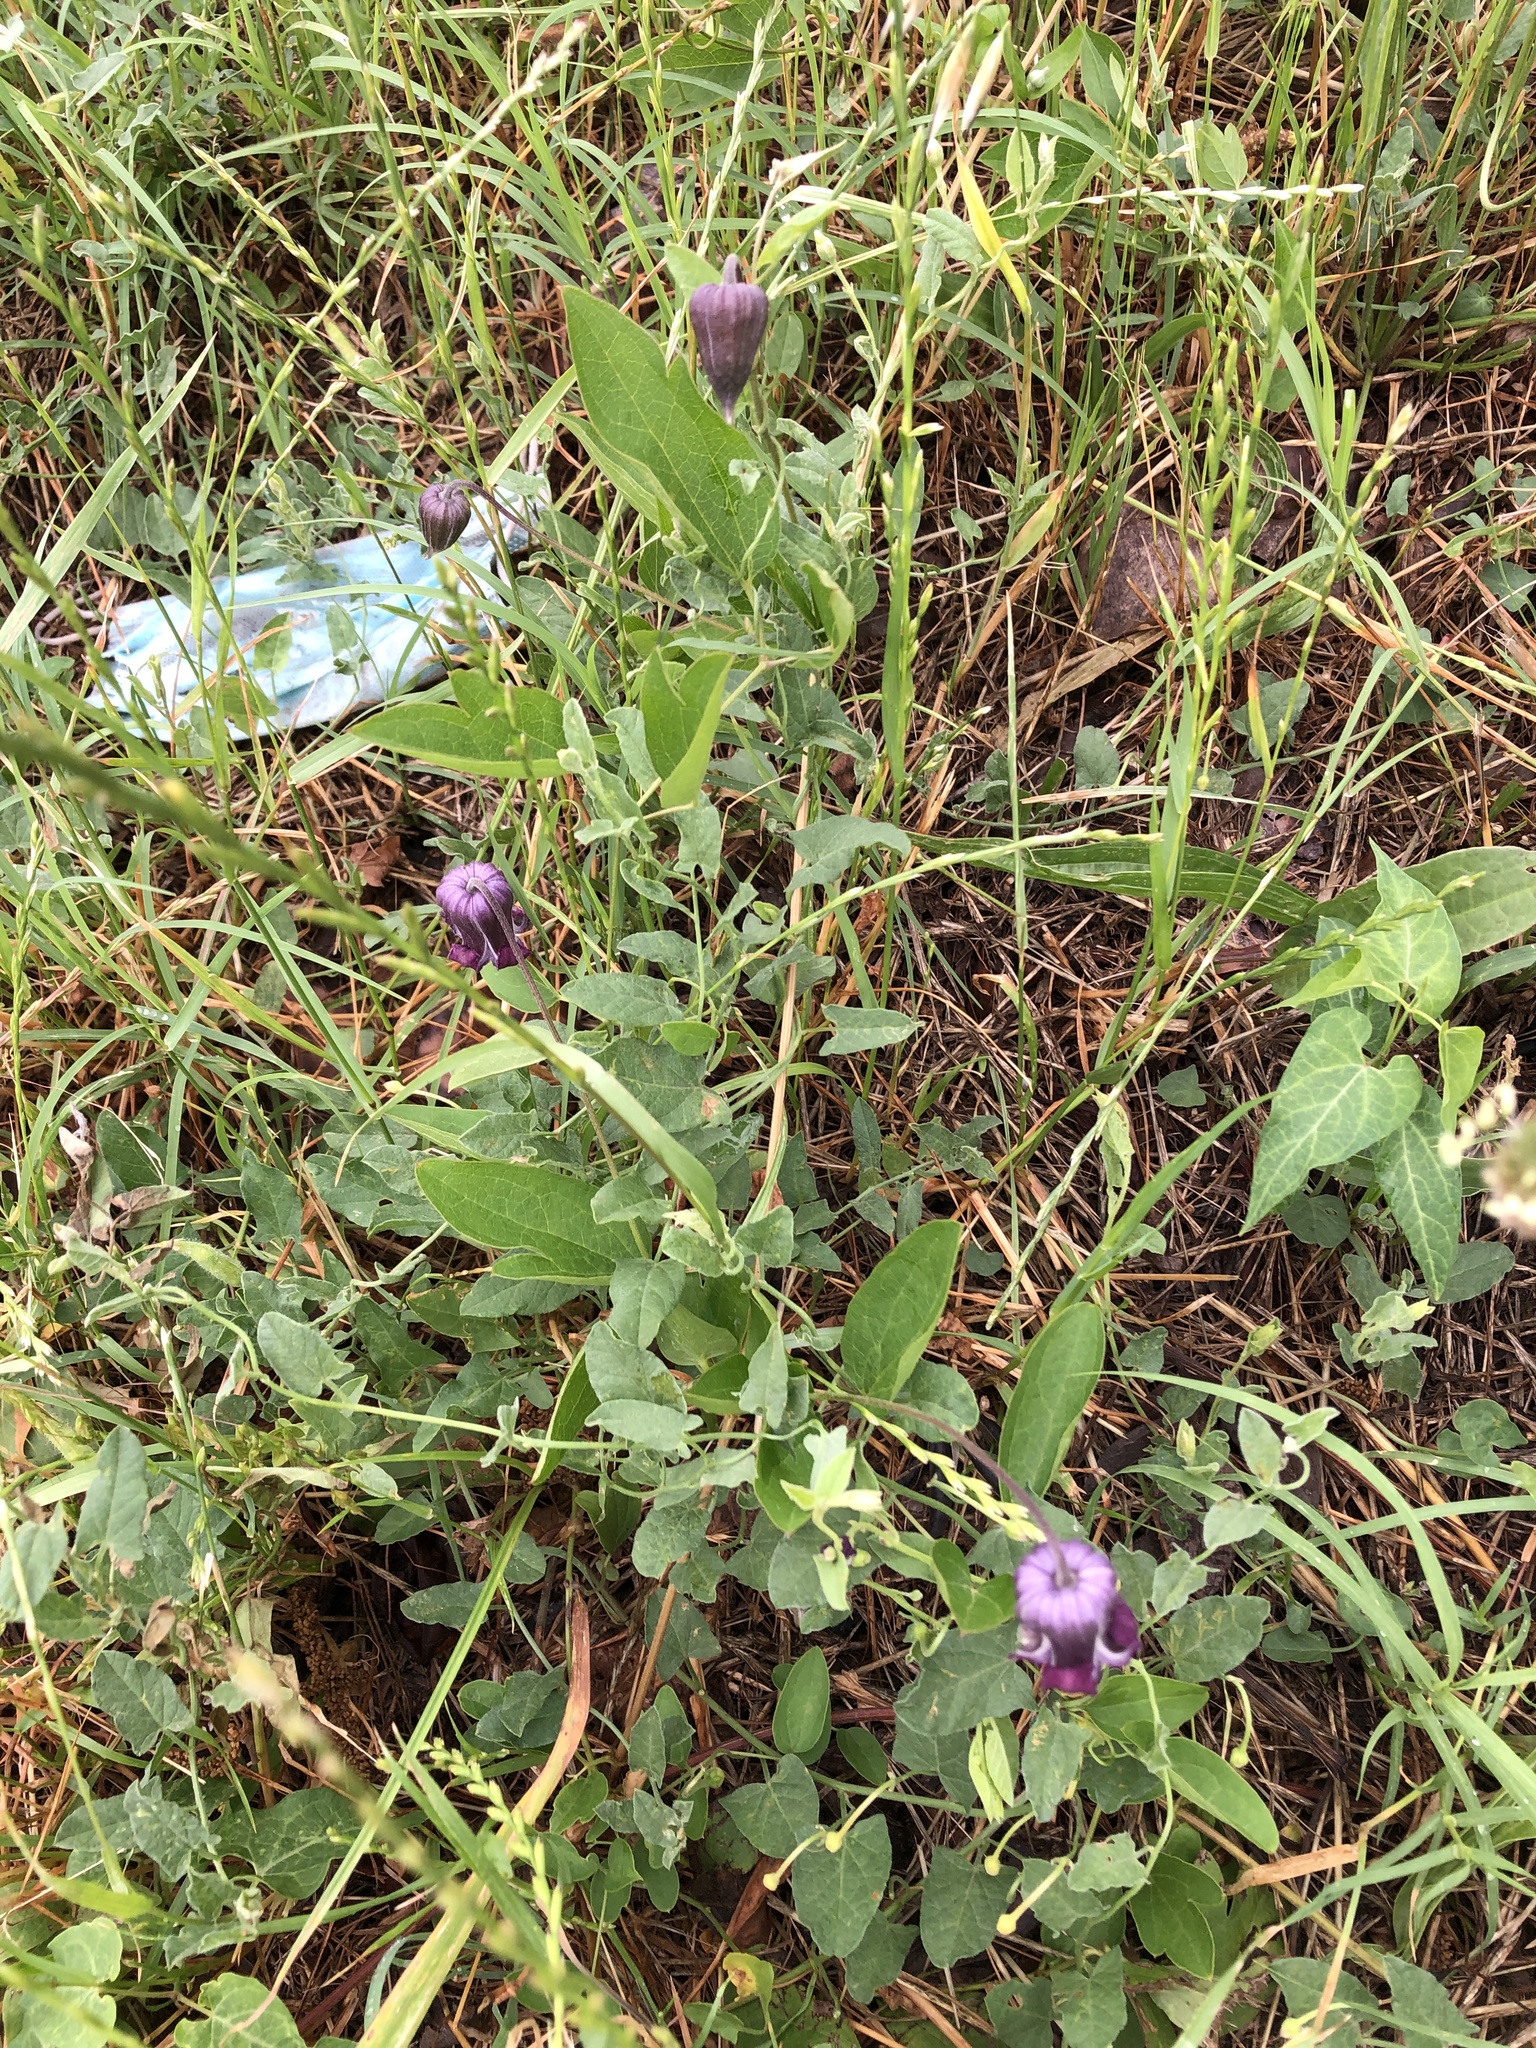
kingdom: Plantae
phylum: Tracheophyta
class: Magnoliopsida
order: Ranunculales
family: Ranunculaceae
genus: Clematis
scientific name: Clematis pitcheri
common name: Bellflower clematis
